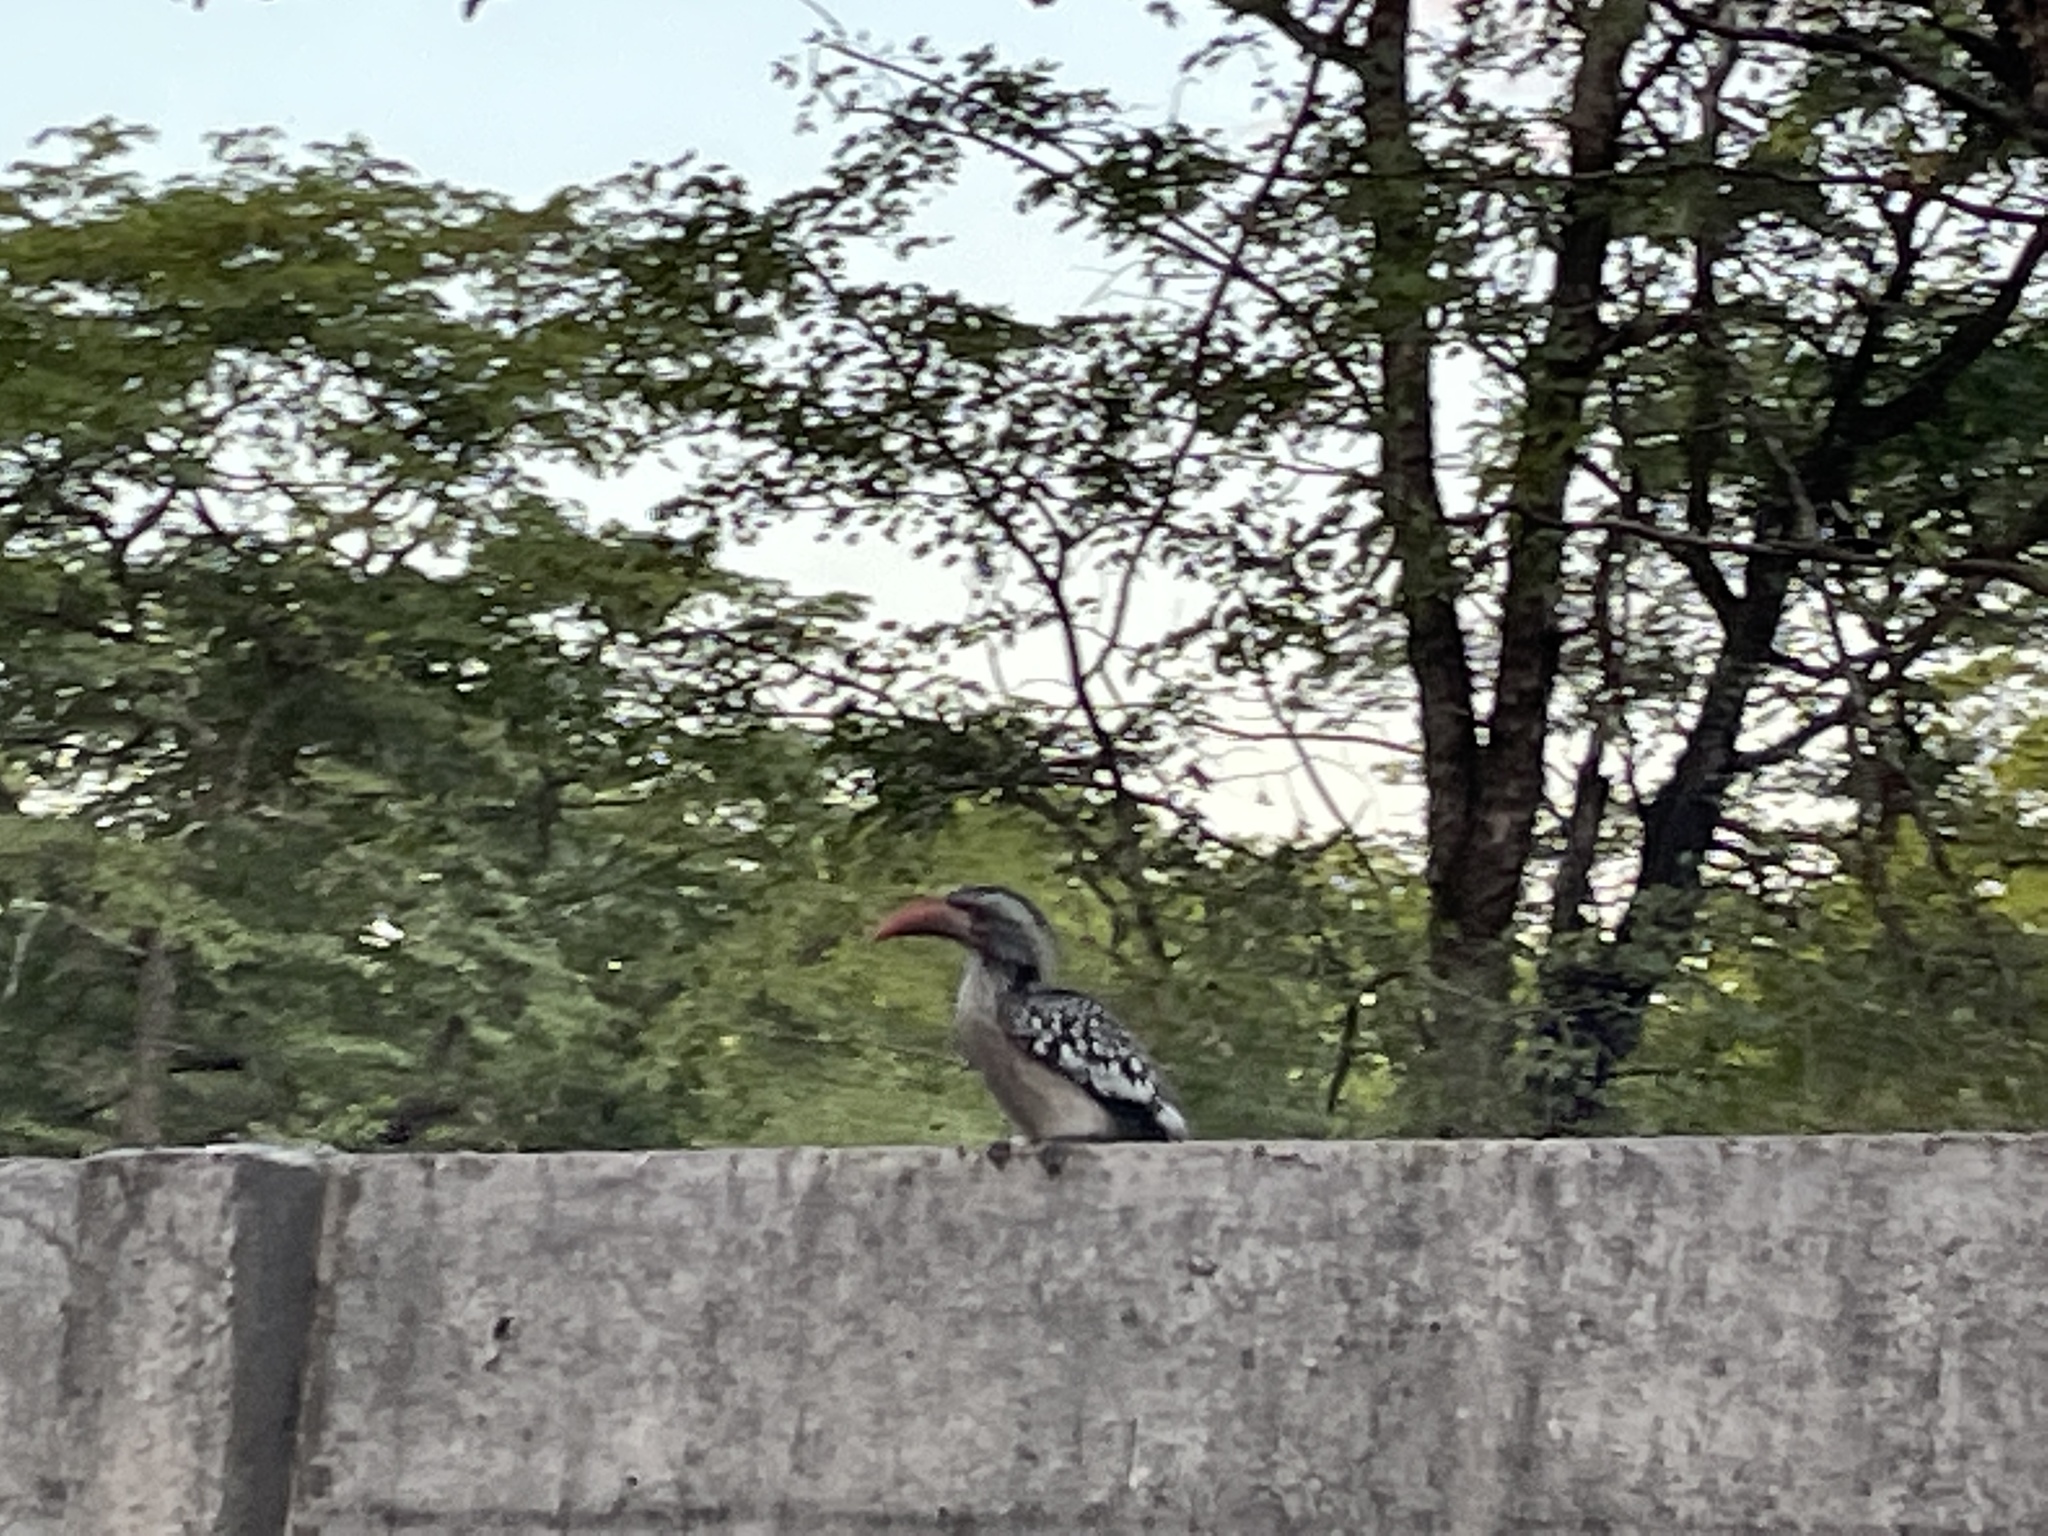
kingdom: Animalia
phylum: Chordata
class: Aves
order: Bucerotiformes
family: Bucerotidae
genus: Tockus
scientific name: Tockus rufirostris
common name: Southern red-billed hornbill
